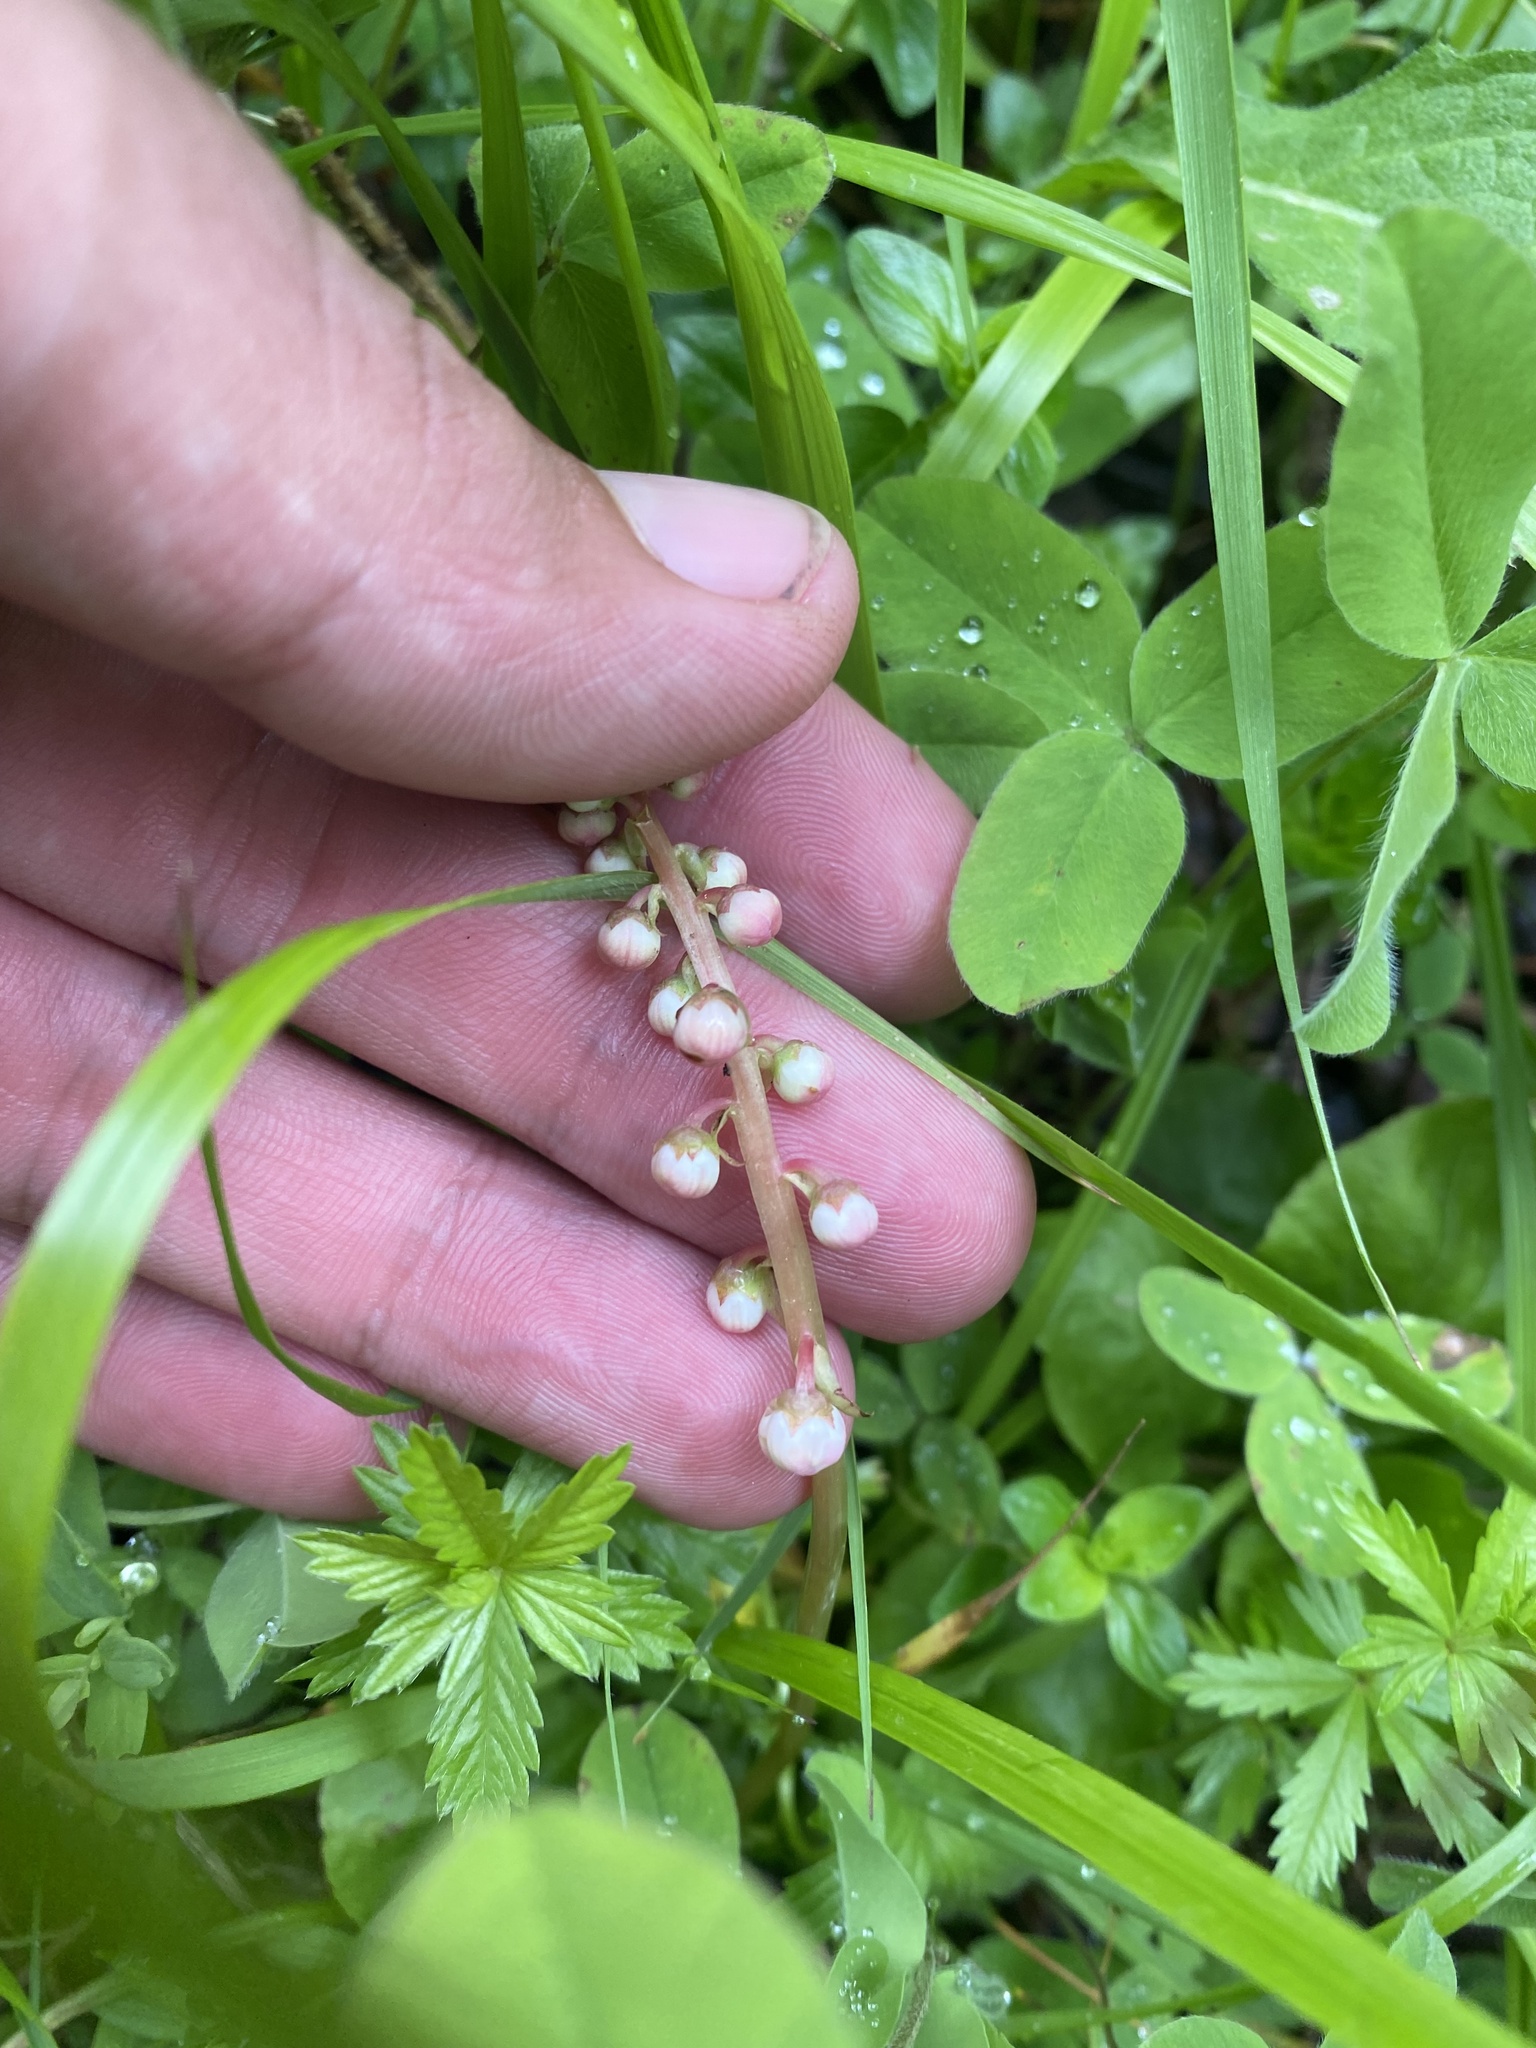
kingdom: Plantae
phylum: Tracheophyta
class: Magnoliopsida
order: Ericales
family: Ericaceae
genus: Pyrola
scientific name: Pyrola minor
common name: Common wintergreen
